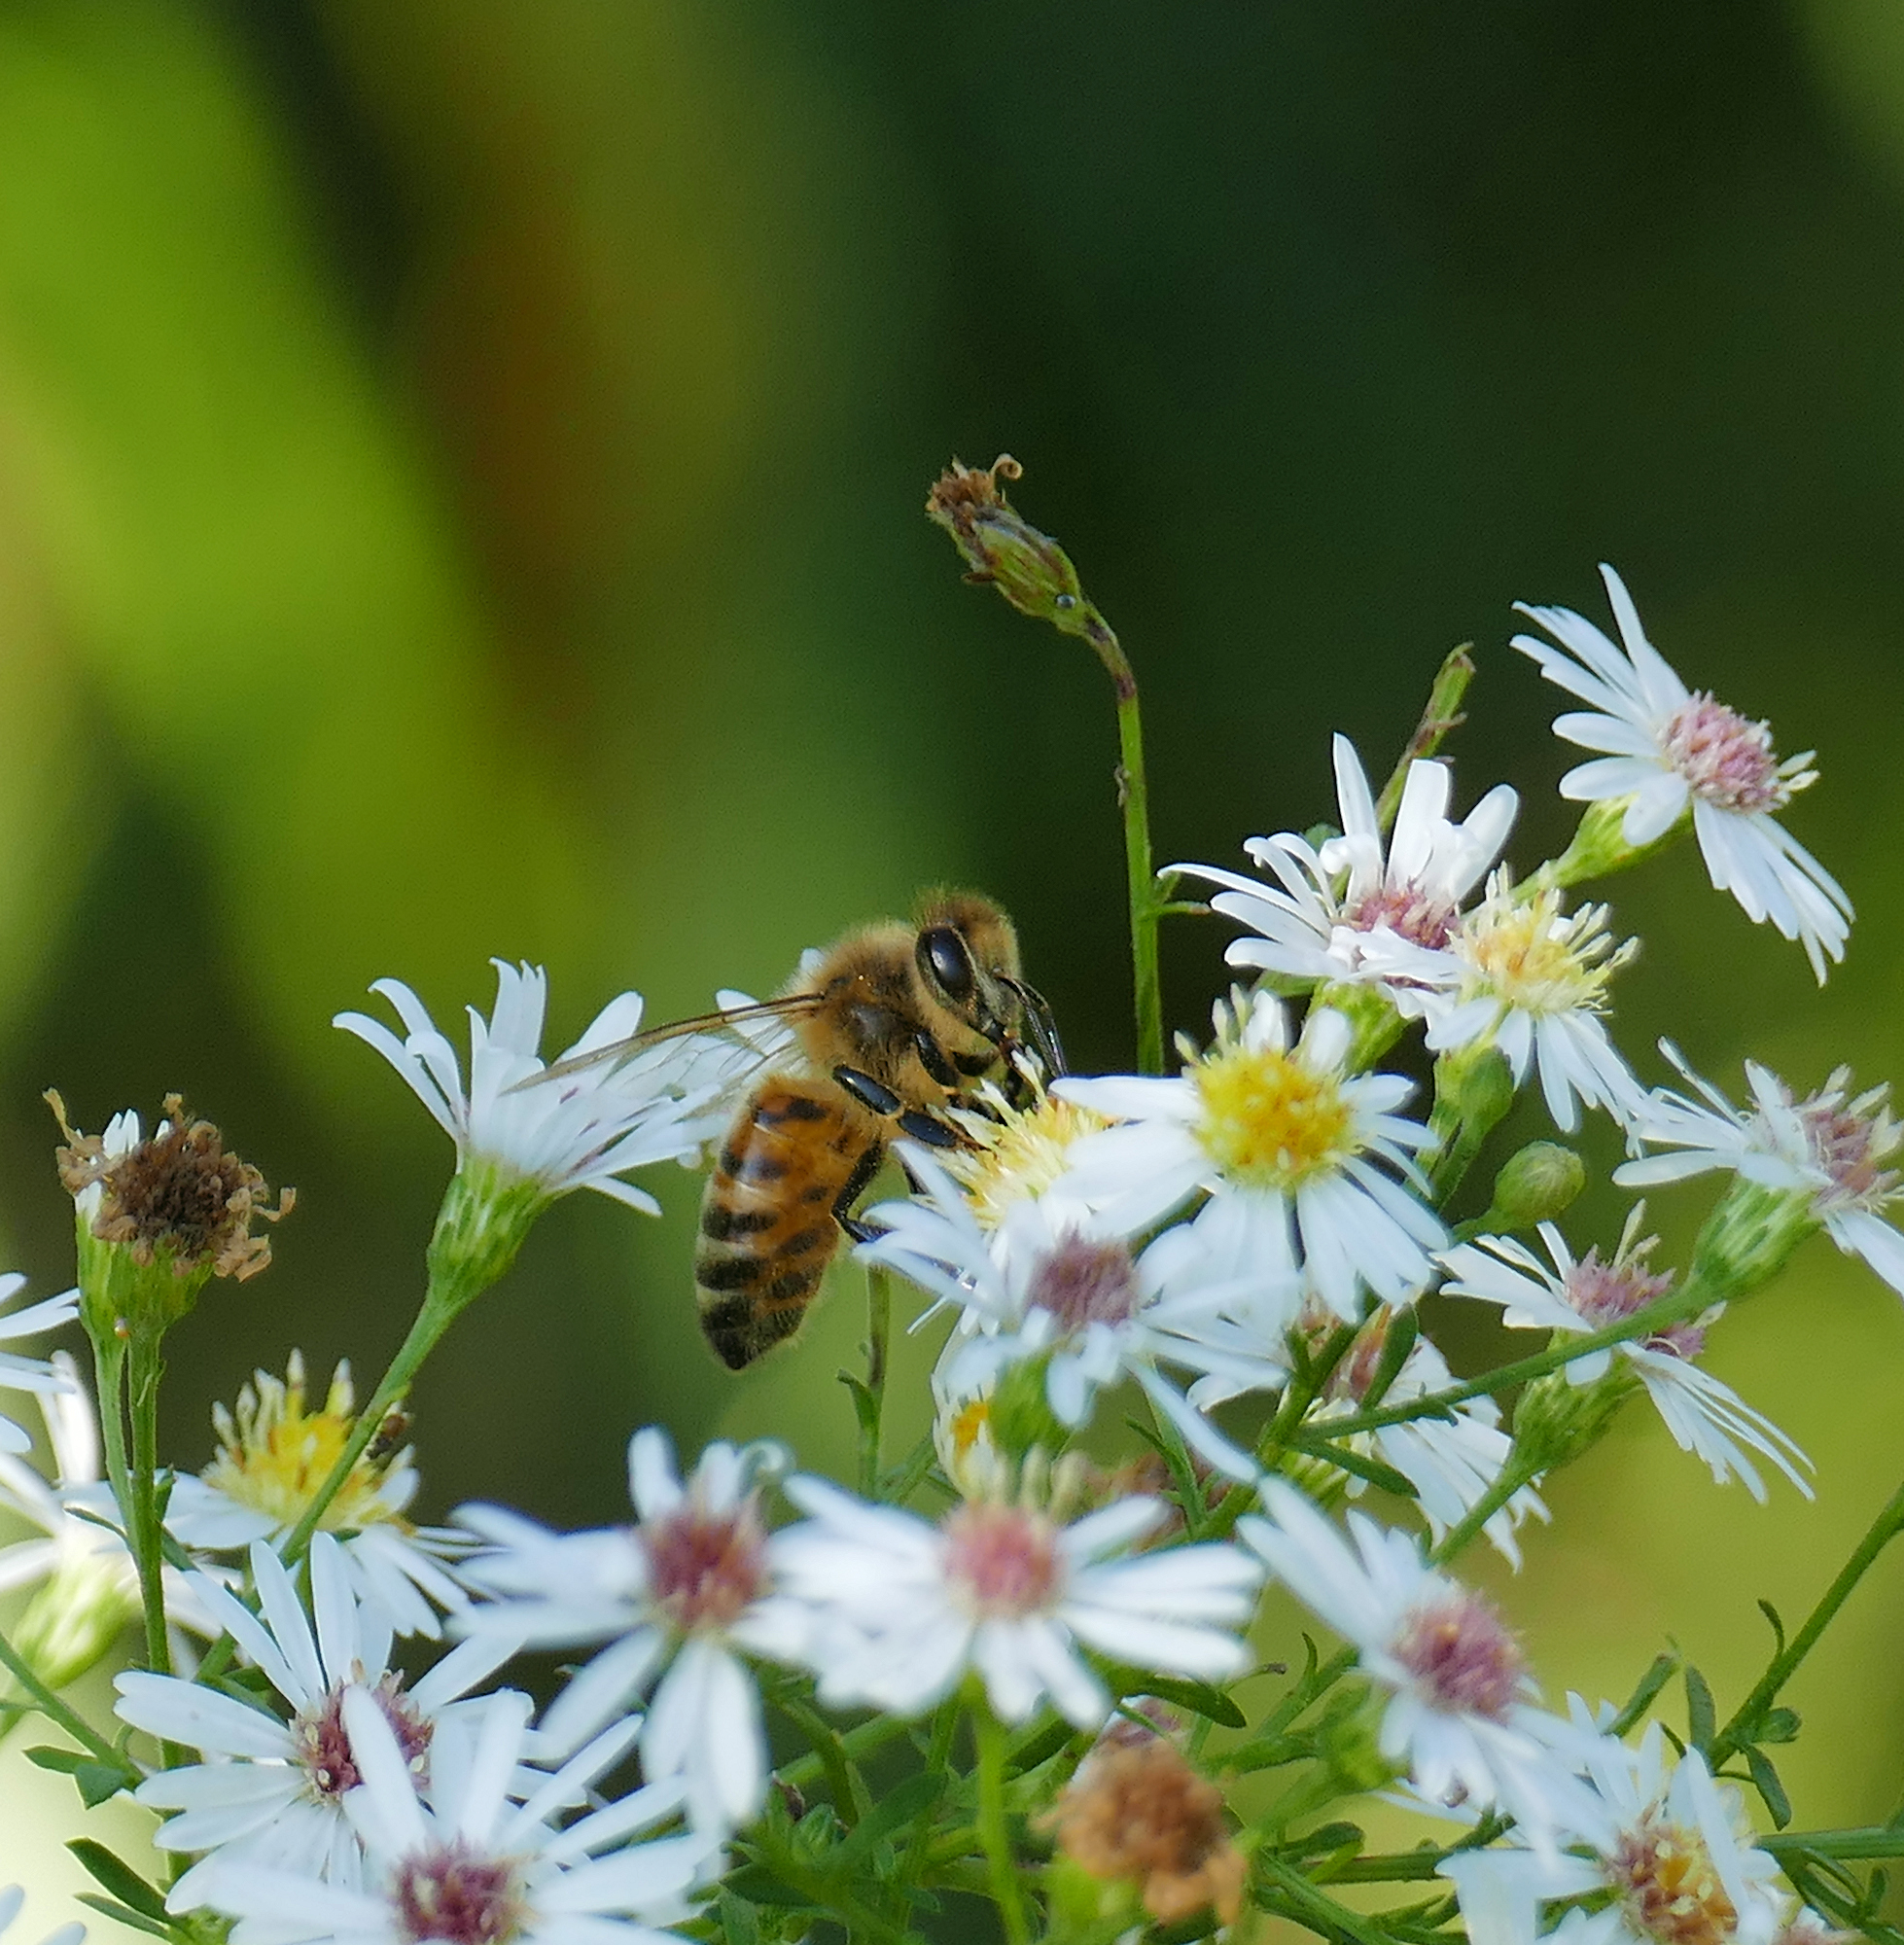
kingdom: Animalia
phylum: Arthropoda
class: Insecta
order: Hymenoptera
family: Apidae
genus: Apis
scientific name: Apis mellifera
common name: Honey bee
